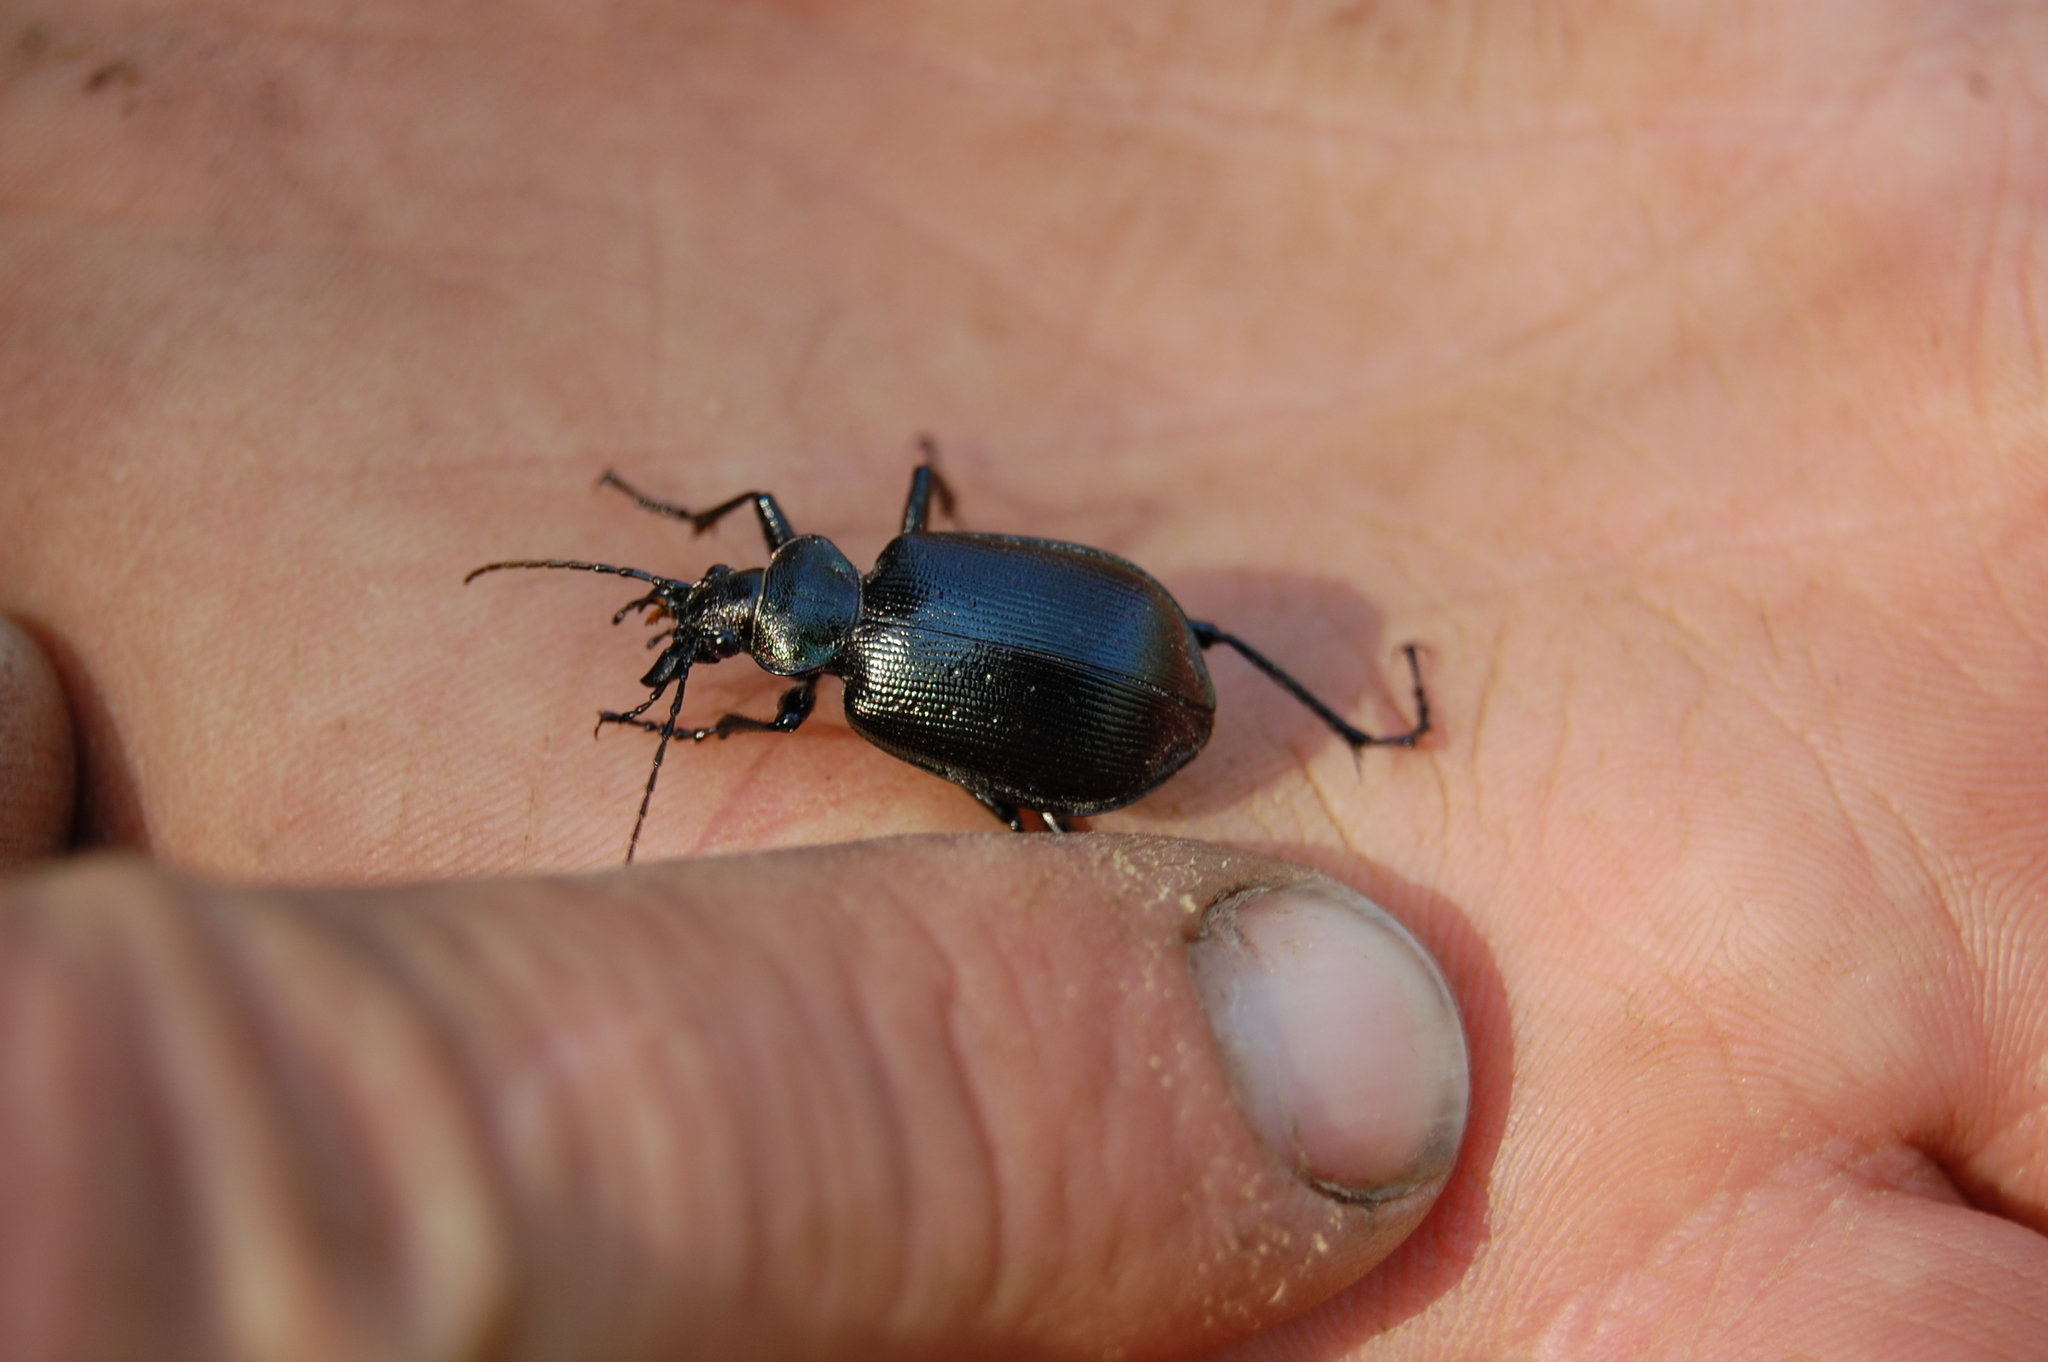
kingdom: Animalia
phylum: Arthropoda
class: Insecta
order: Coleoptera
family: Carabidae
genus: Calosoma
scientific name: Calosoma inquisitor
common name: Caterpillar-hunter
